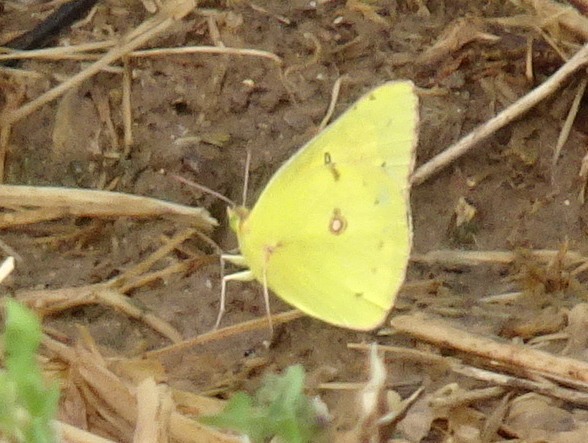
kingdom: Animalia
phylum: Arthropoda
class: Insecta
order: Lepidoptera
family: Pieridae
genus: Colias
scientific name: Colias eurytheme
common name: Alfalfa butterfly
